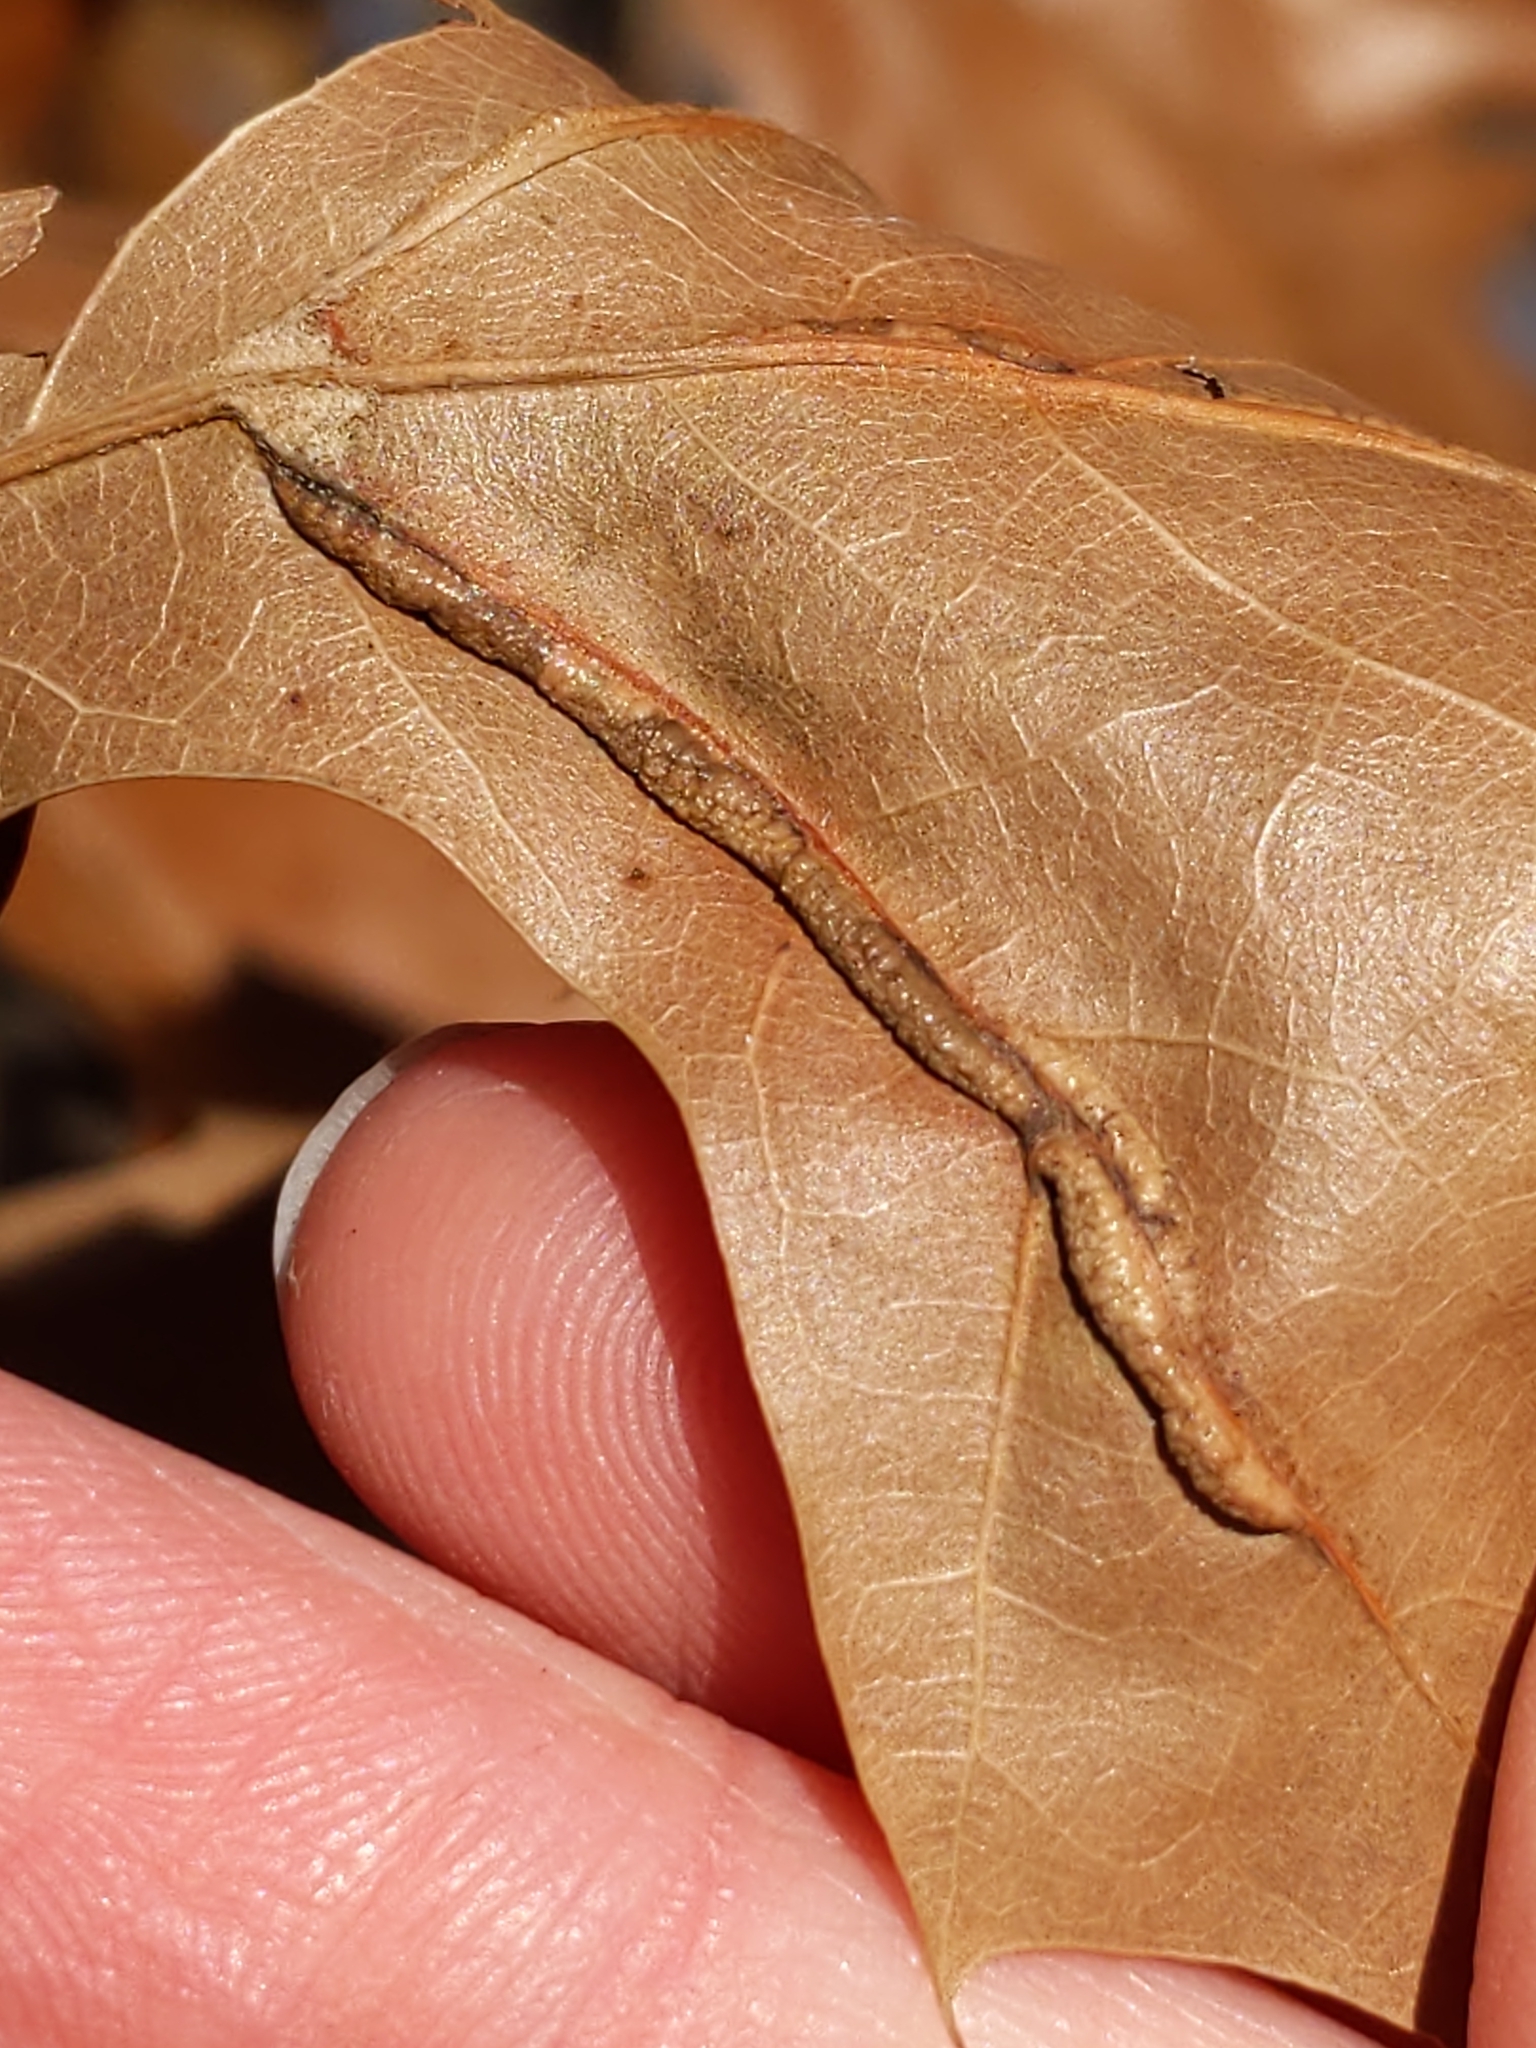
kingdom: Animalia
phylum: Arthropoda
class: Insecta
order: Diptera
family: Cecidomyiidae
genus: Macrodiplosis
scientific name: Macrodiplosis q-orucum
